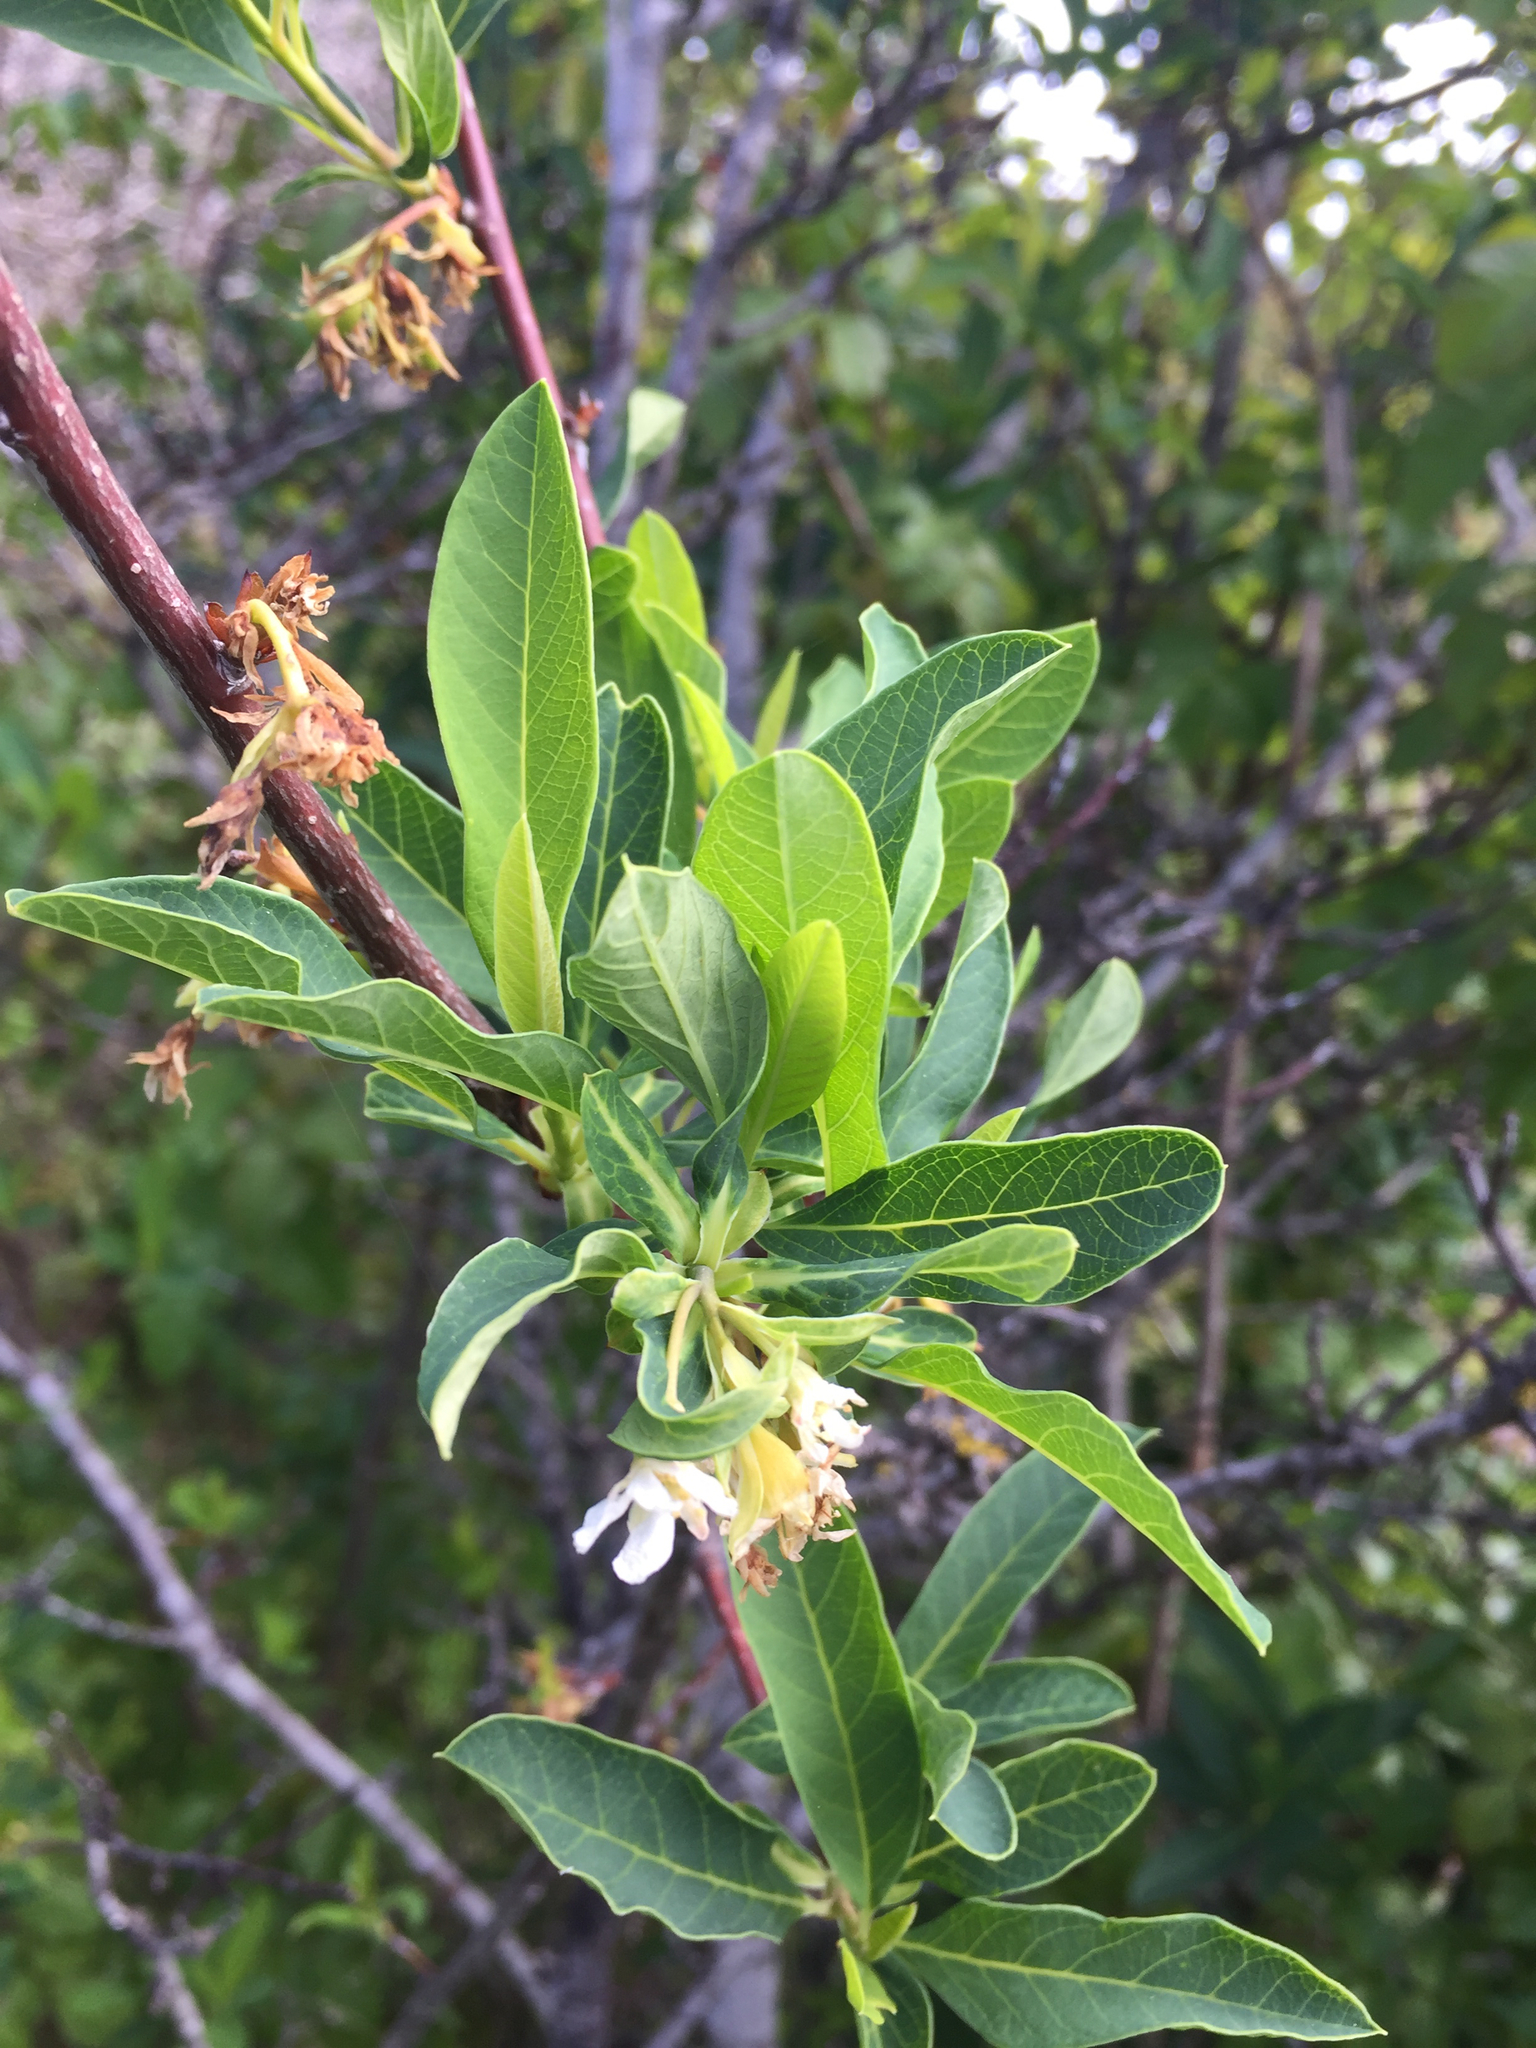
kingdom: Plantae
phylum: Tracheophyta
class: Magnoliopsida
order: Rosales
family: Rosaceae
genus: Oemleria
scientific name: Oemleria cerasiformis
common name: Osoberry
